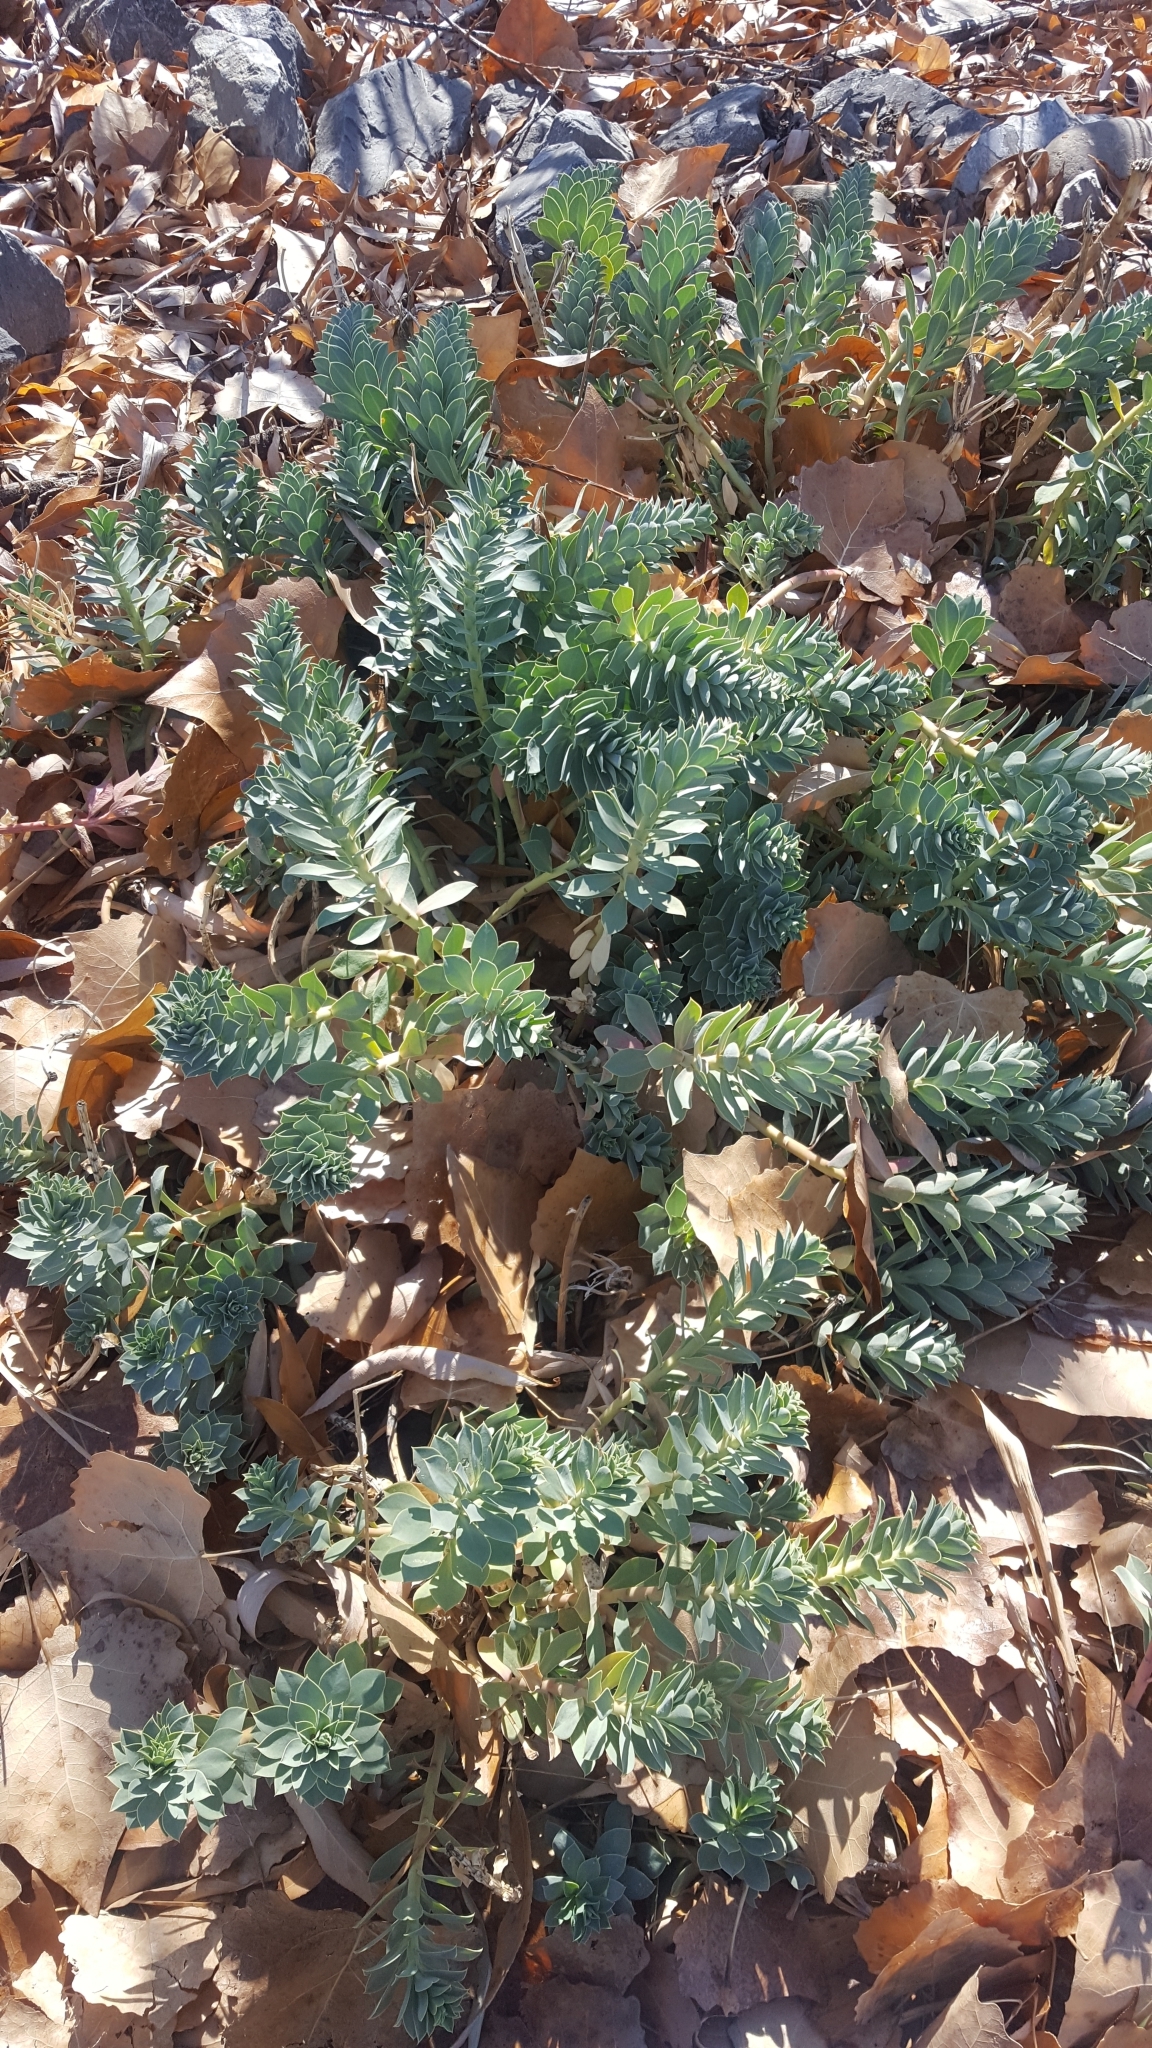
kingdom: Plantae
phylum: Tracheophyta
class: Magnoliopsida
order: Malpighiales
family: Euphorbiaceae
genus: Euphorbia
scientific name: Euphorbia myrsinites
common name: Myrtle spurge
